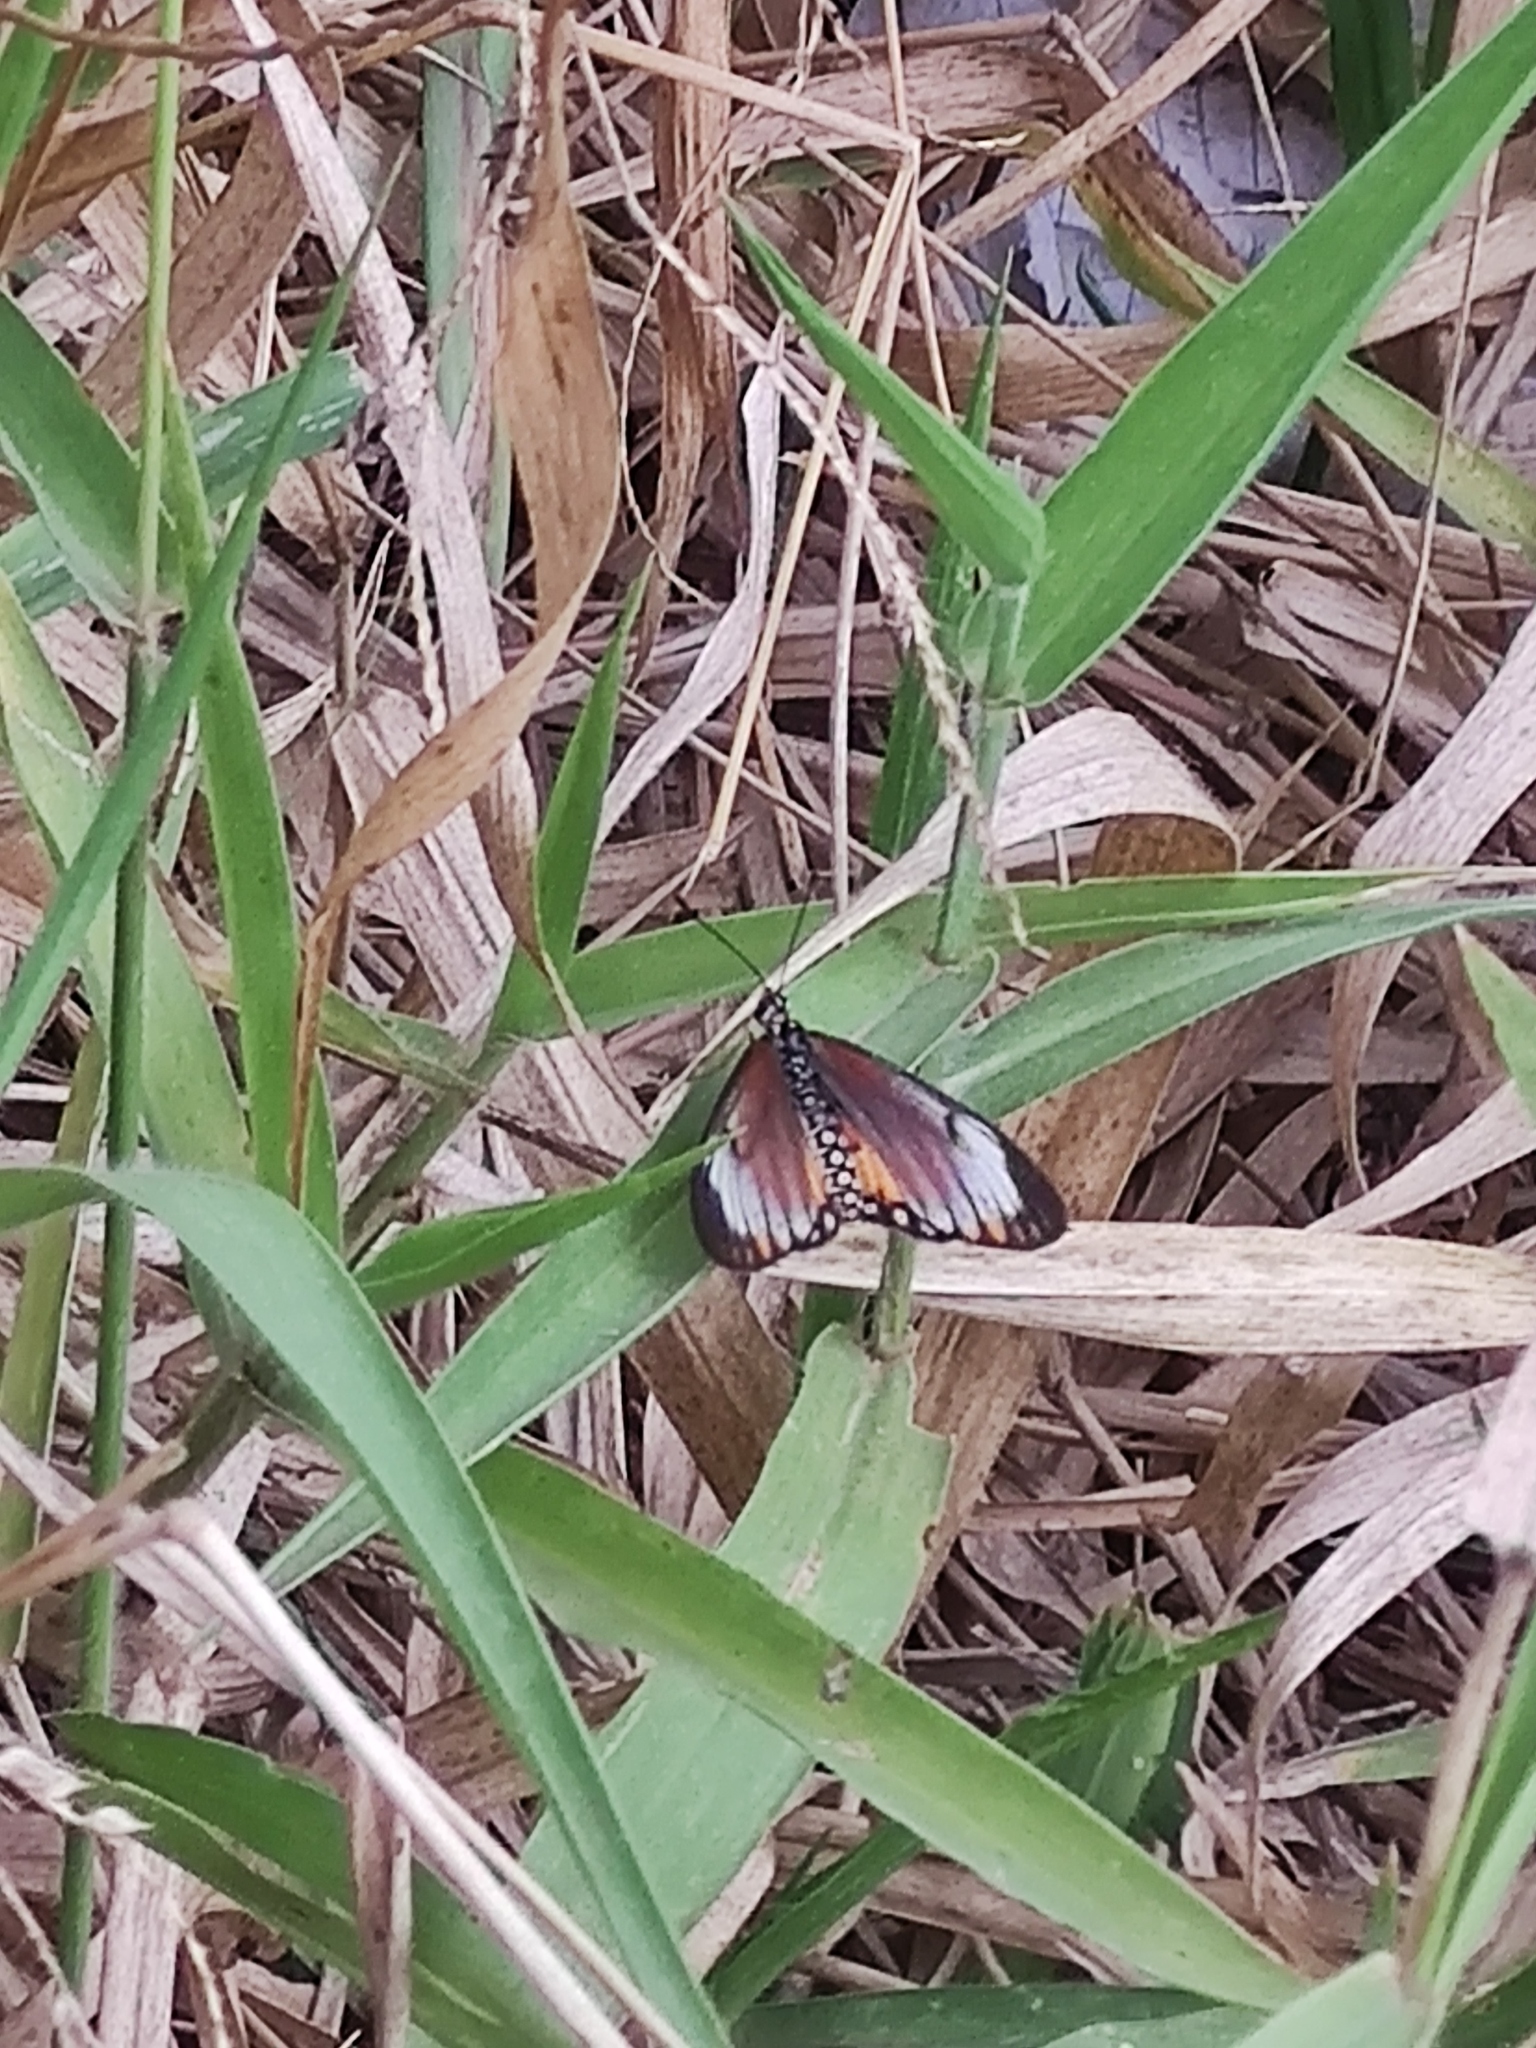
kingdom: Animalia
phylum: Arthropoda
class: Insecta
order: Lepidoptera
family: Nymphalidae
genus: Acraea
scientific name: Acraea Telchinia serena
